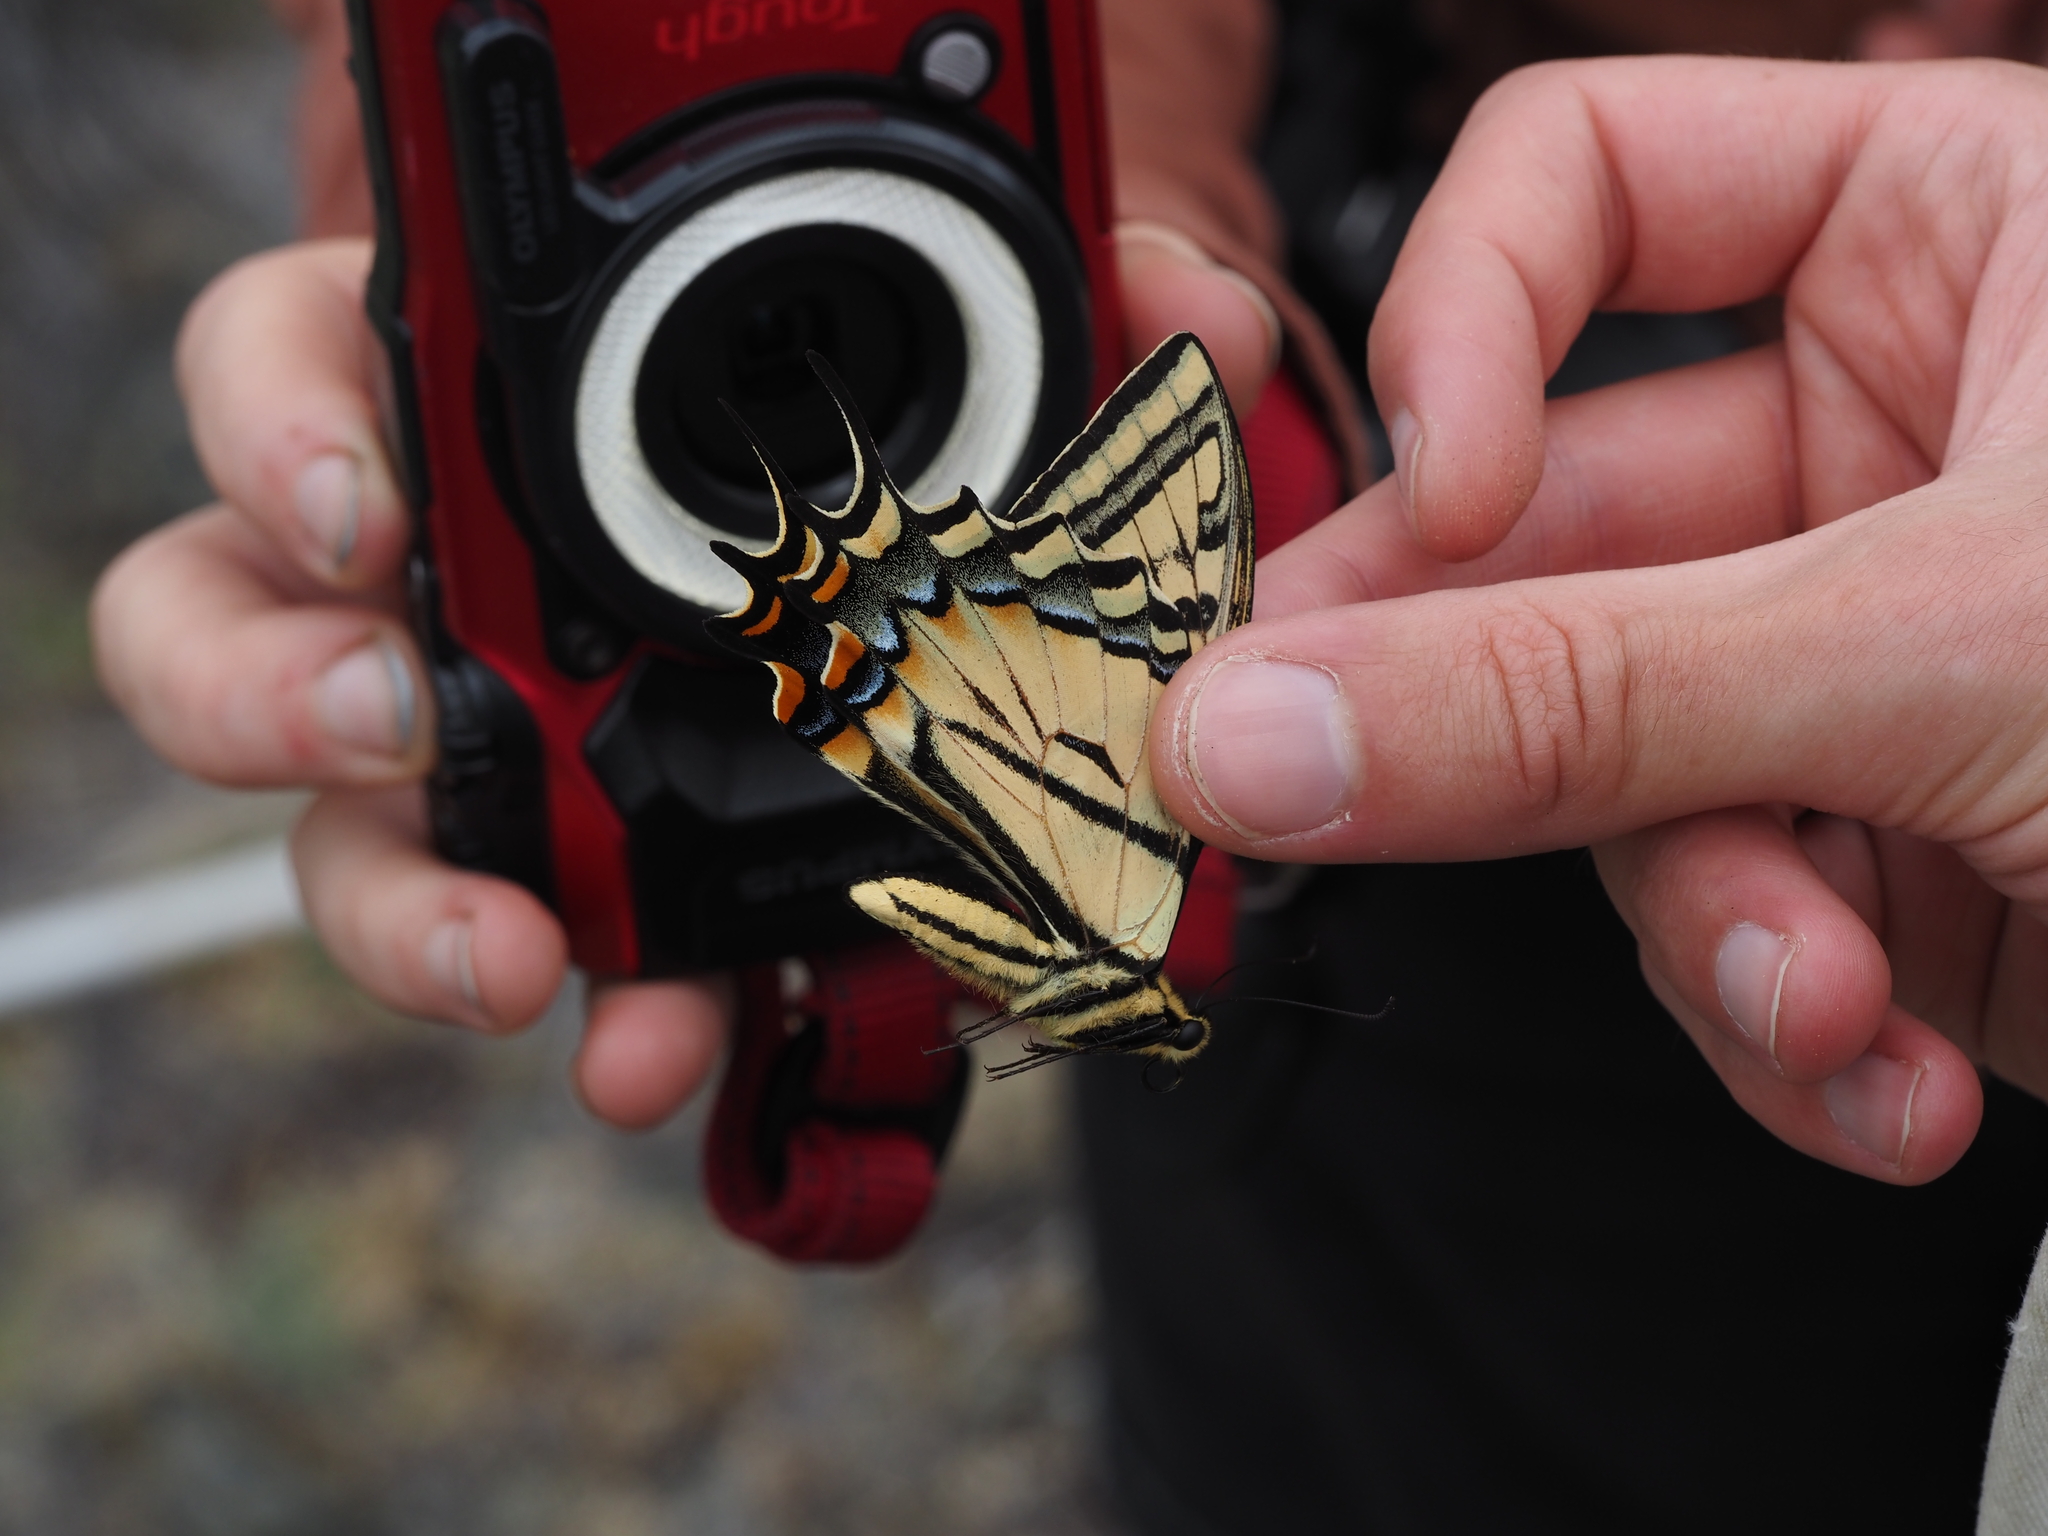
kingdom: Animalia
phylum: Arthropoda
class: Insecta
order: Lepidoptera
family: Papilionidae
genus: Papilio
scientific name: Papilio multicaudata
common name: Two-tailed tiger swallowtail
